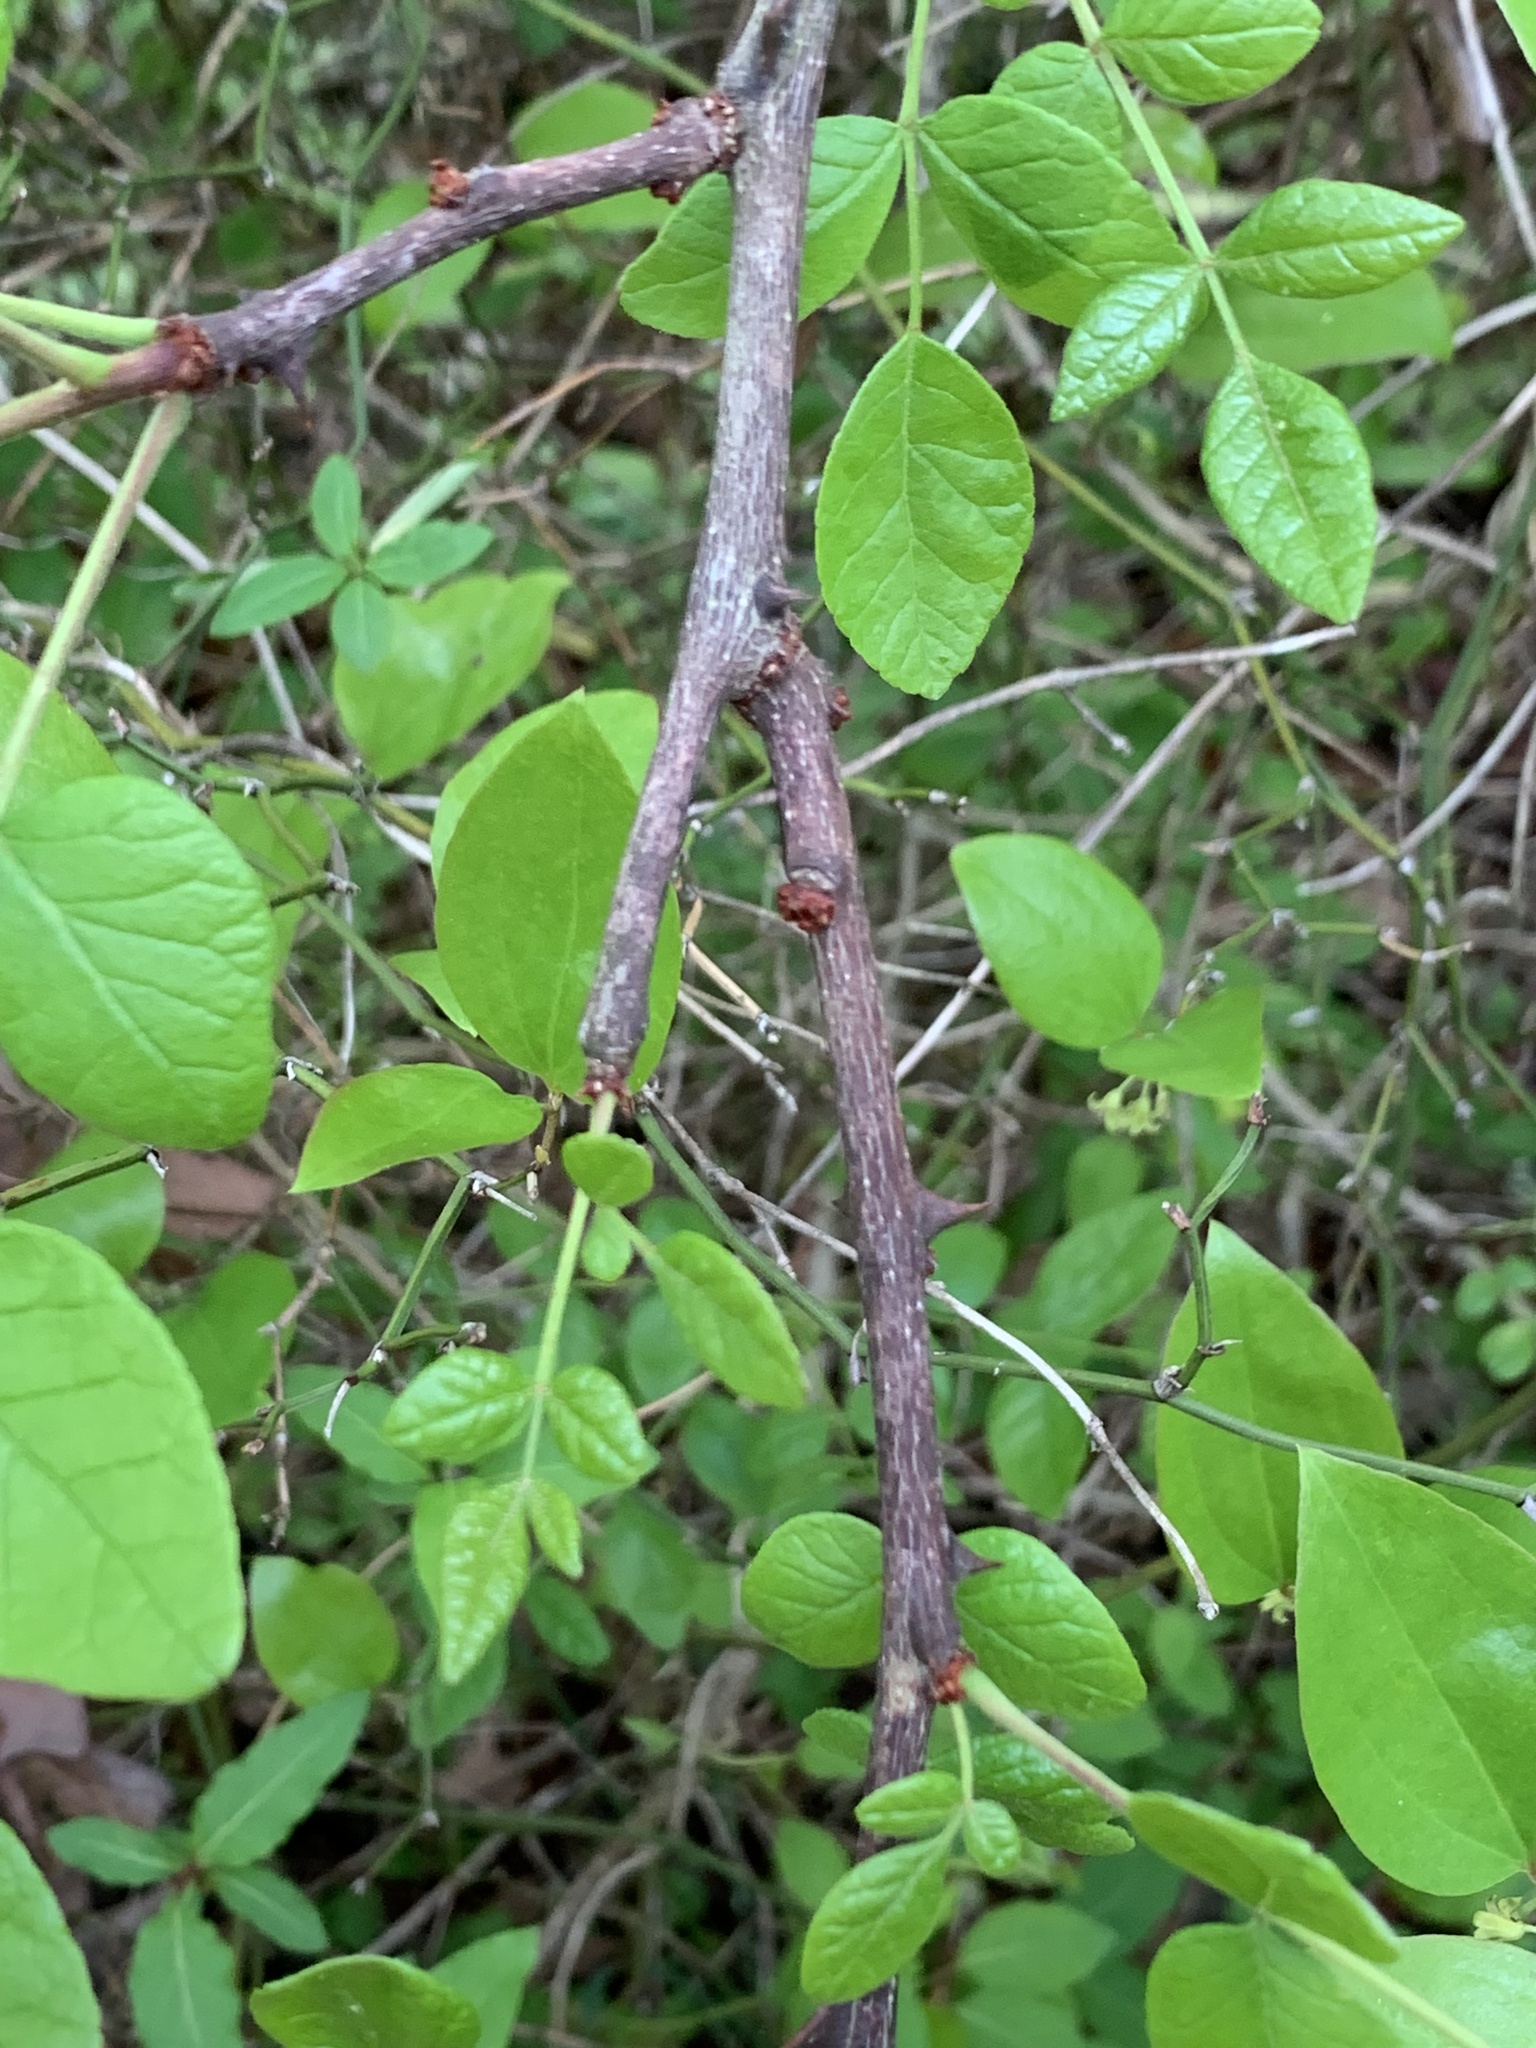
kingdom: Plantae
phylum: Tracheophyta
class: Magnoliopsida
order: Sapindales
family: Rutaceae
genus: Zanthoxylum
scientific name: Zanthoxylum americanum
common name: Northern prickly-ash
